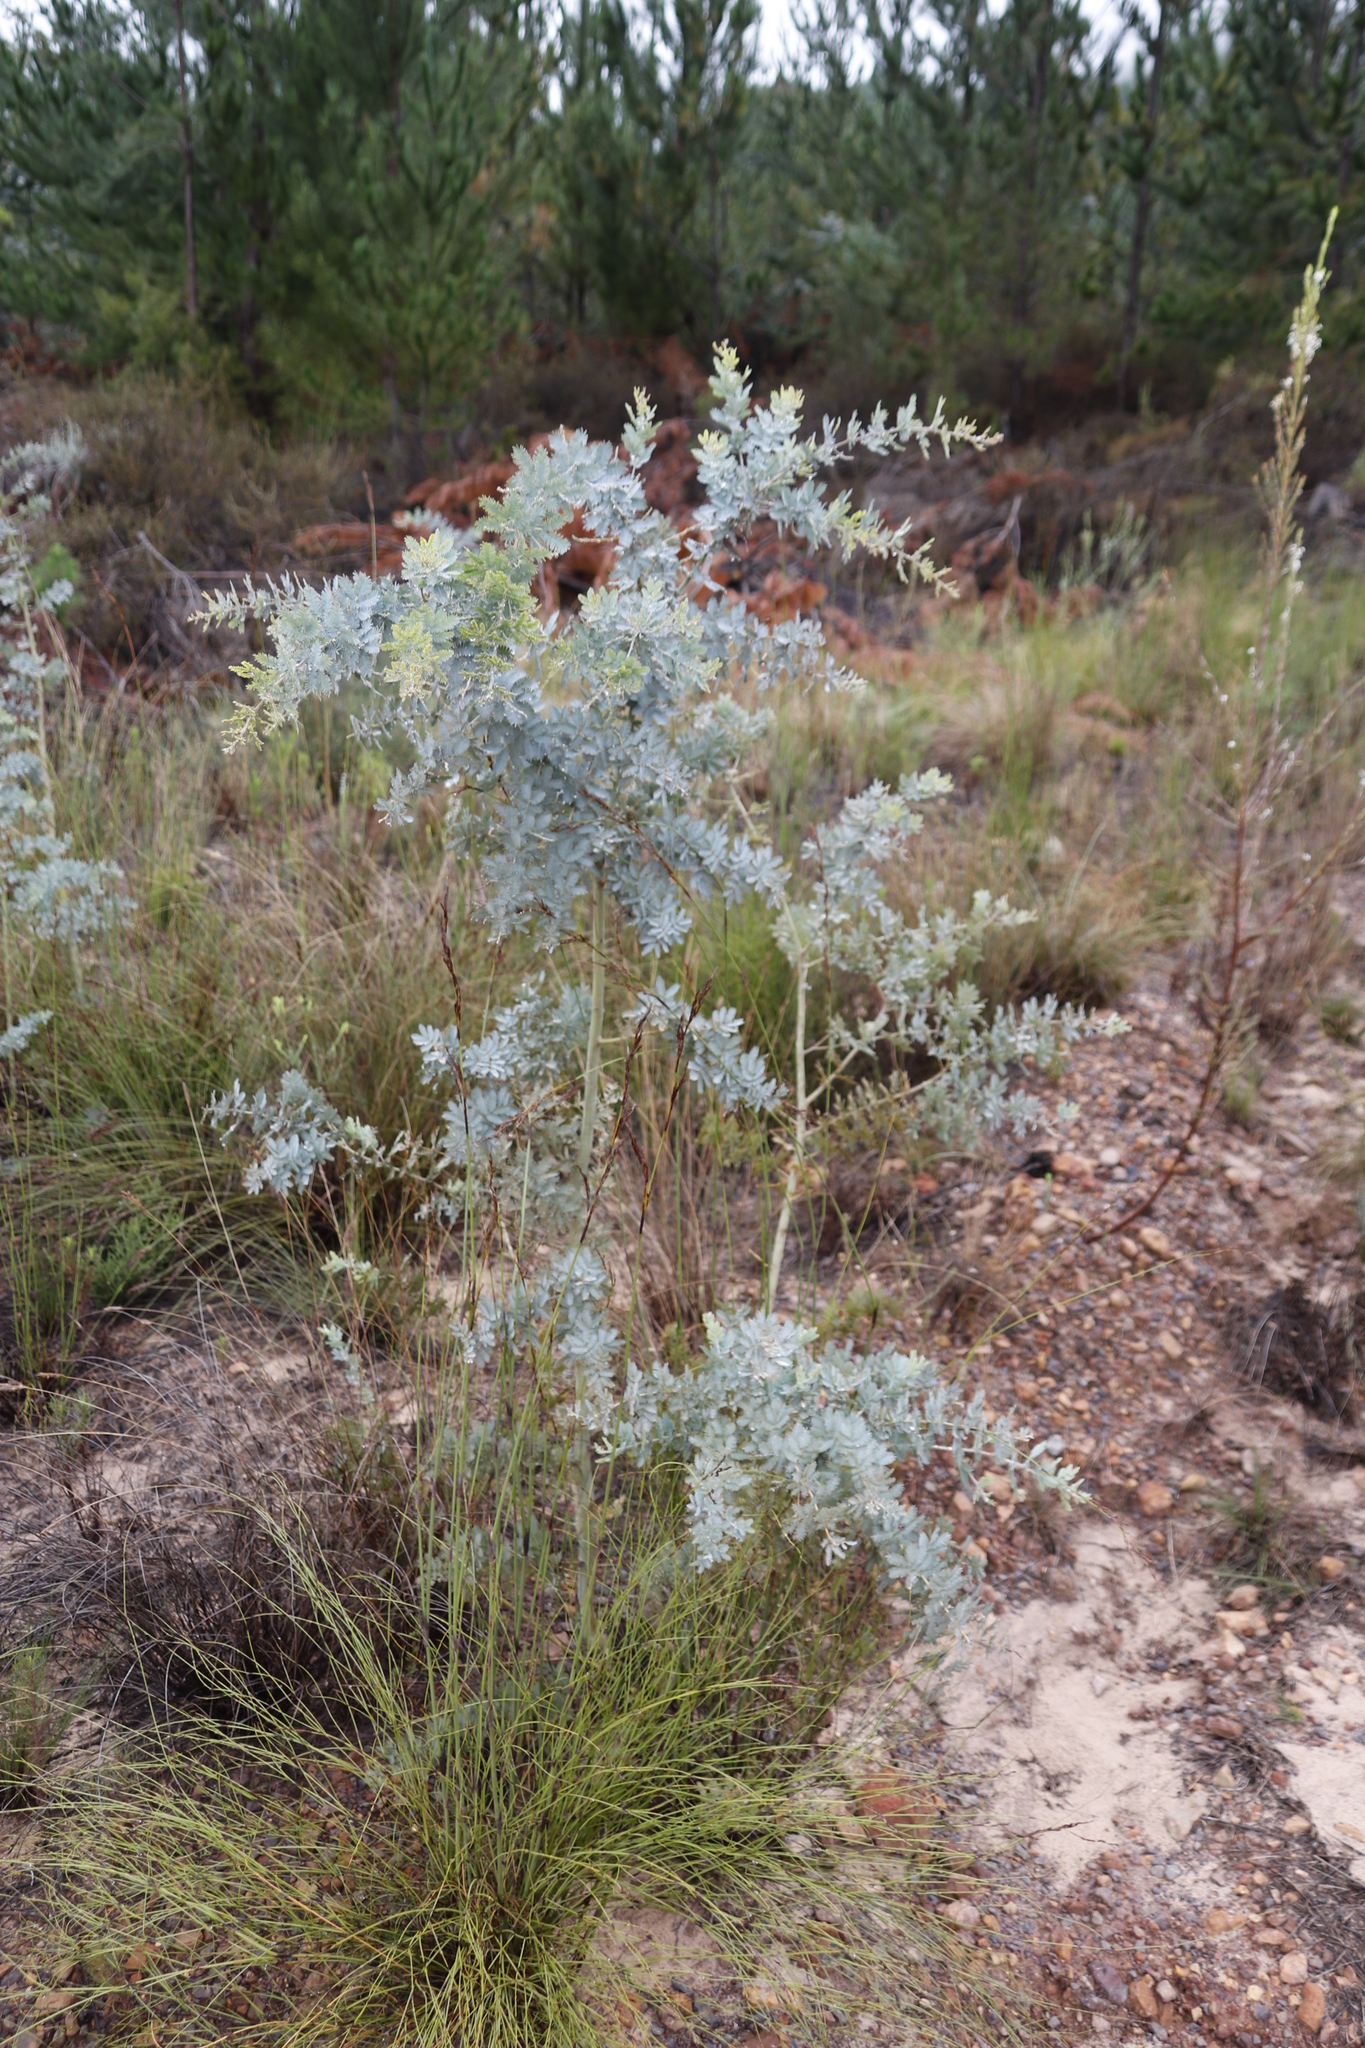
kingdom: Plantae
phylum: Tracheophyta
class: Magnoliopsida
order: Fabales
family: Fabaceae
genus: Acacia
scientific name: Acacia baileyana
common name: Cootamundra wattle
